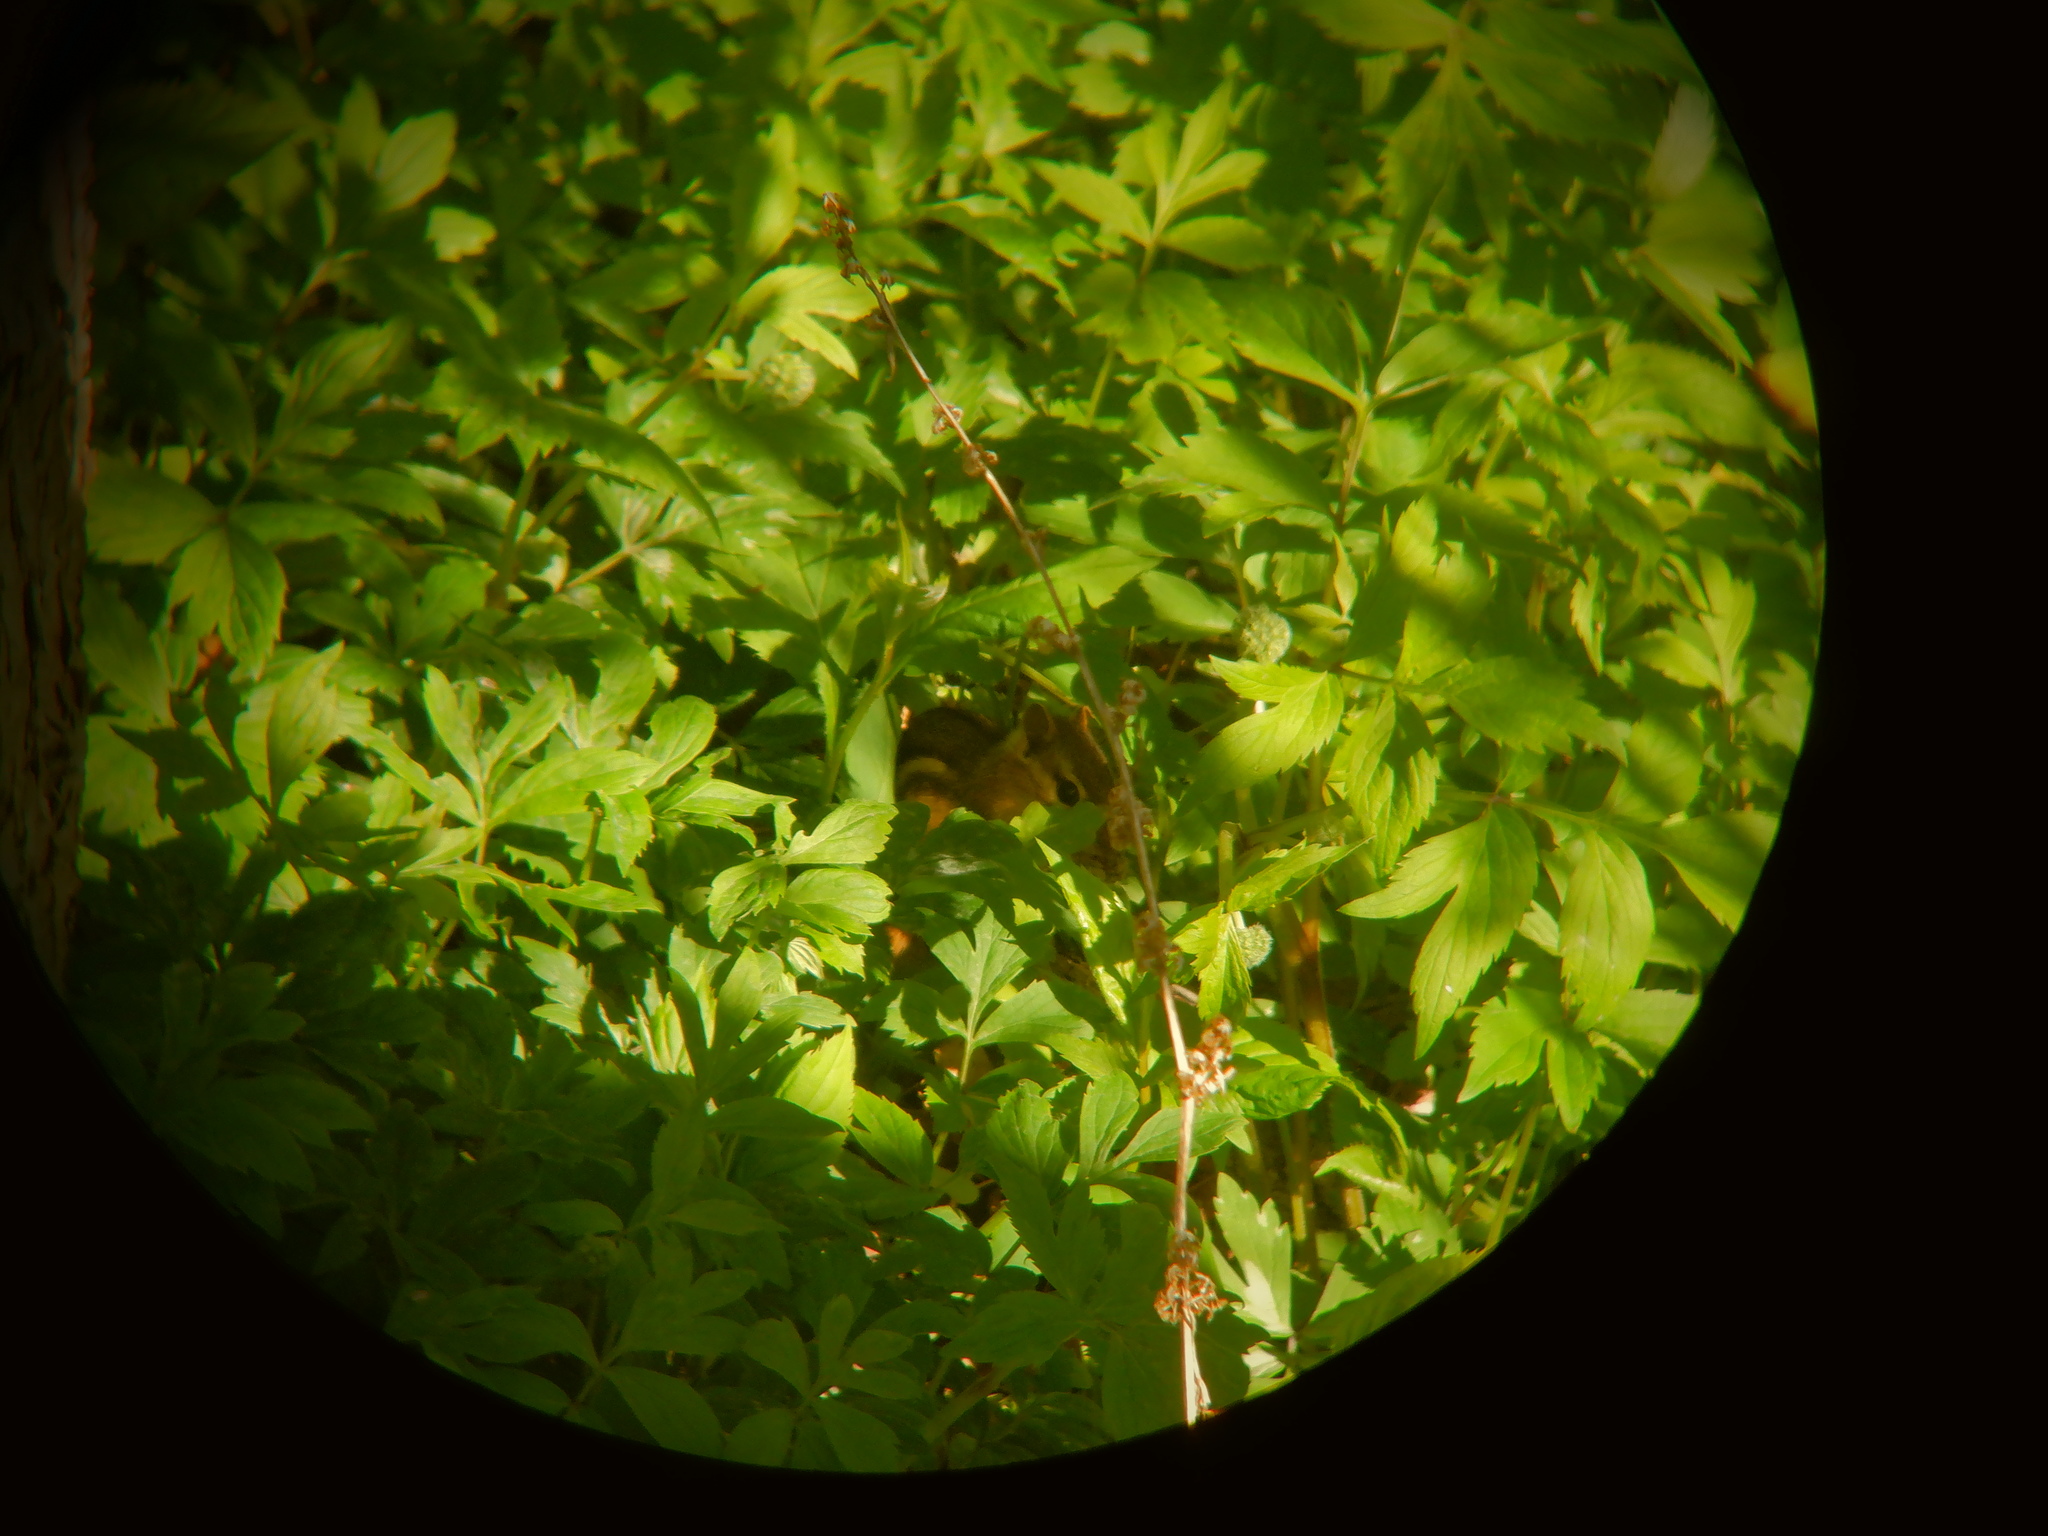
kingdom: Animalia
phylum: Chordata
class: Mammalia
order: Rodentia
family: Sciuridae
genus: Tamias
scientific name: Tamias striatus
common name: Eastern chipmunk
